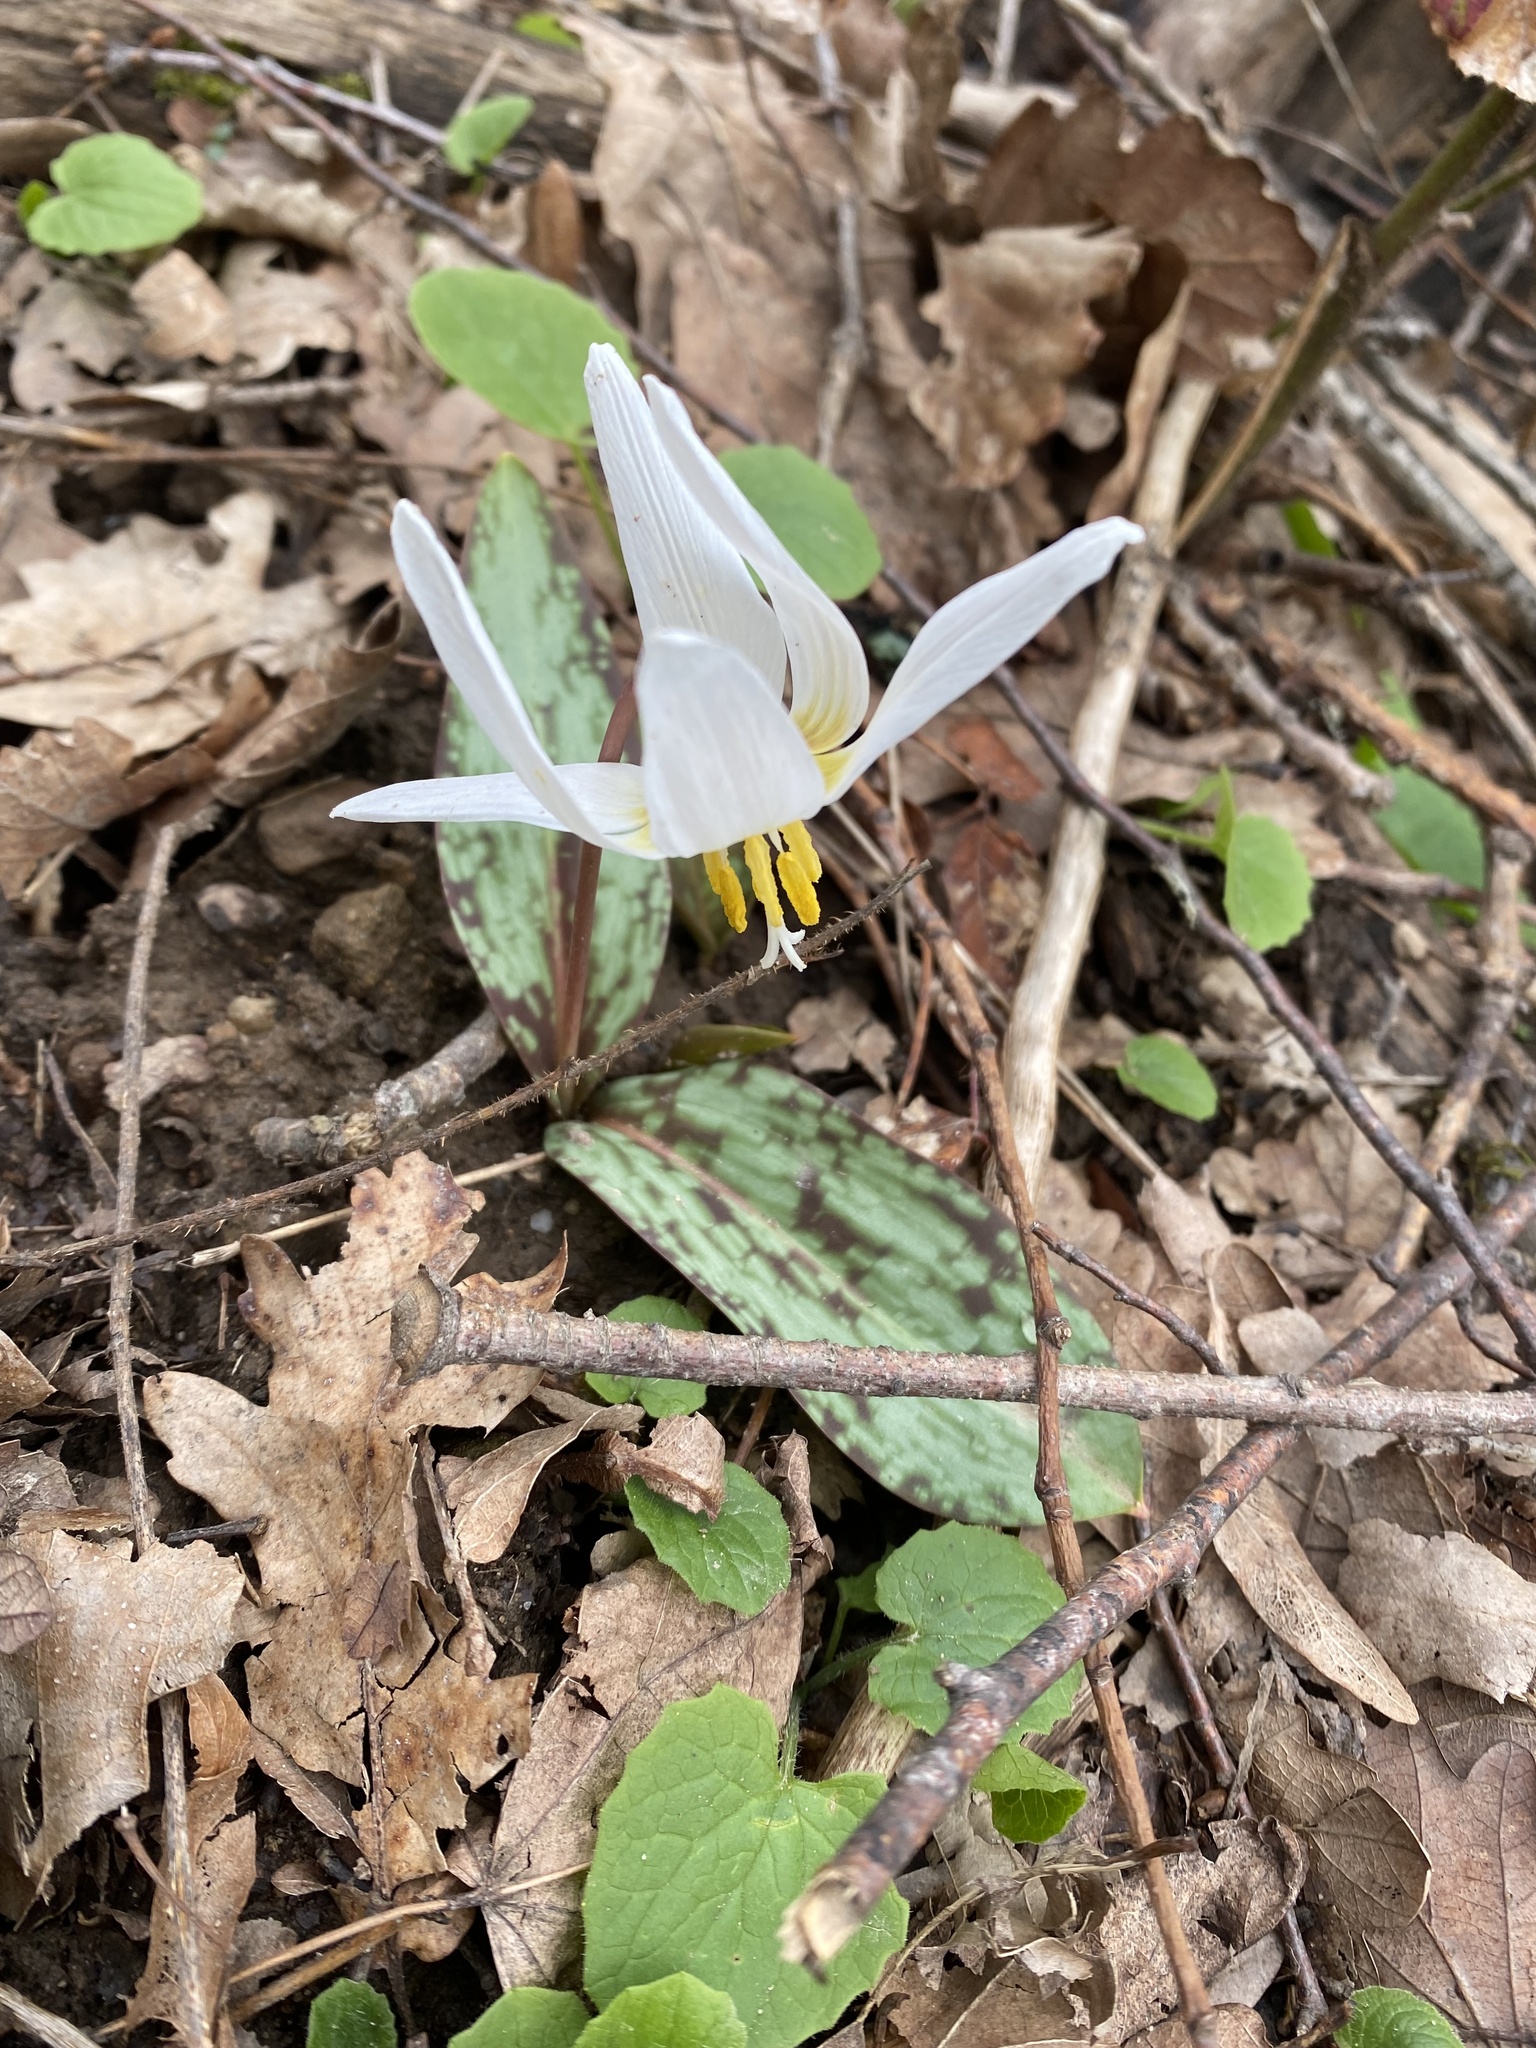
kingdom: Plantae
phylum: Tracheophyta
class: Liliopsida
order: Liliales
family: Liliaceae
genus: Erythronium
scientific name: Erythronium caucasicum
